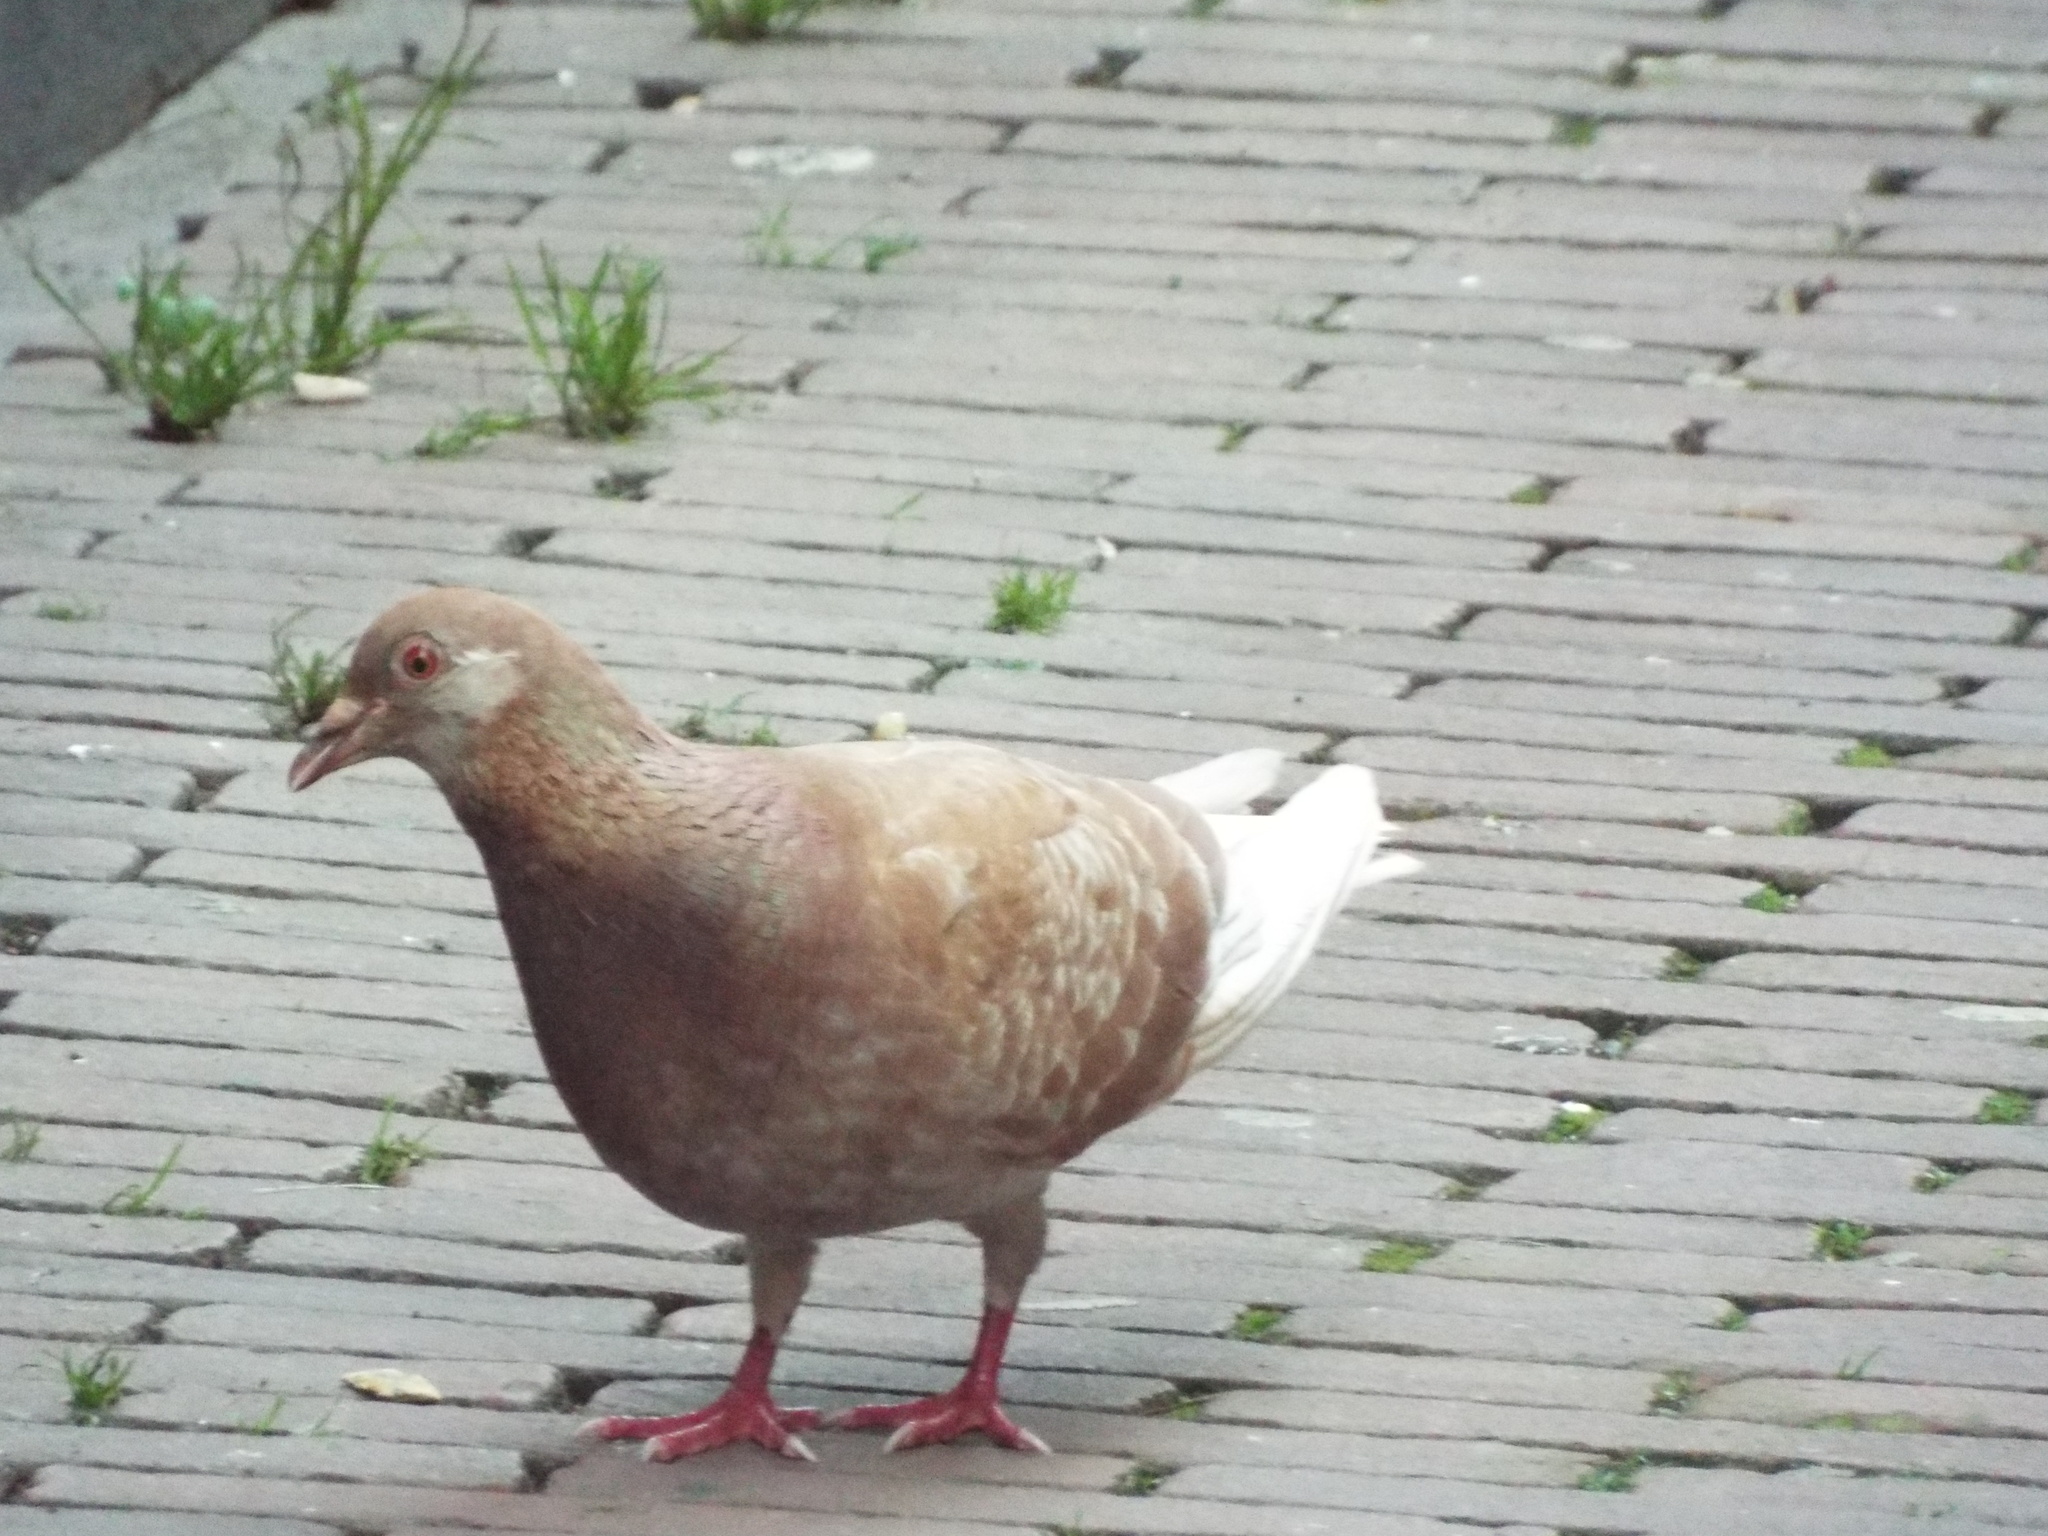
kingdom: Animalia
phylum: Chordata
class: Aves
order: Columbiformes
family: Columbidae
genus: Columba
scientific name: Columba livia
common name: Rock pigeon
